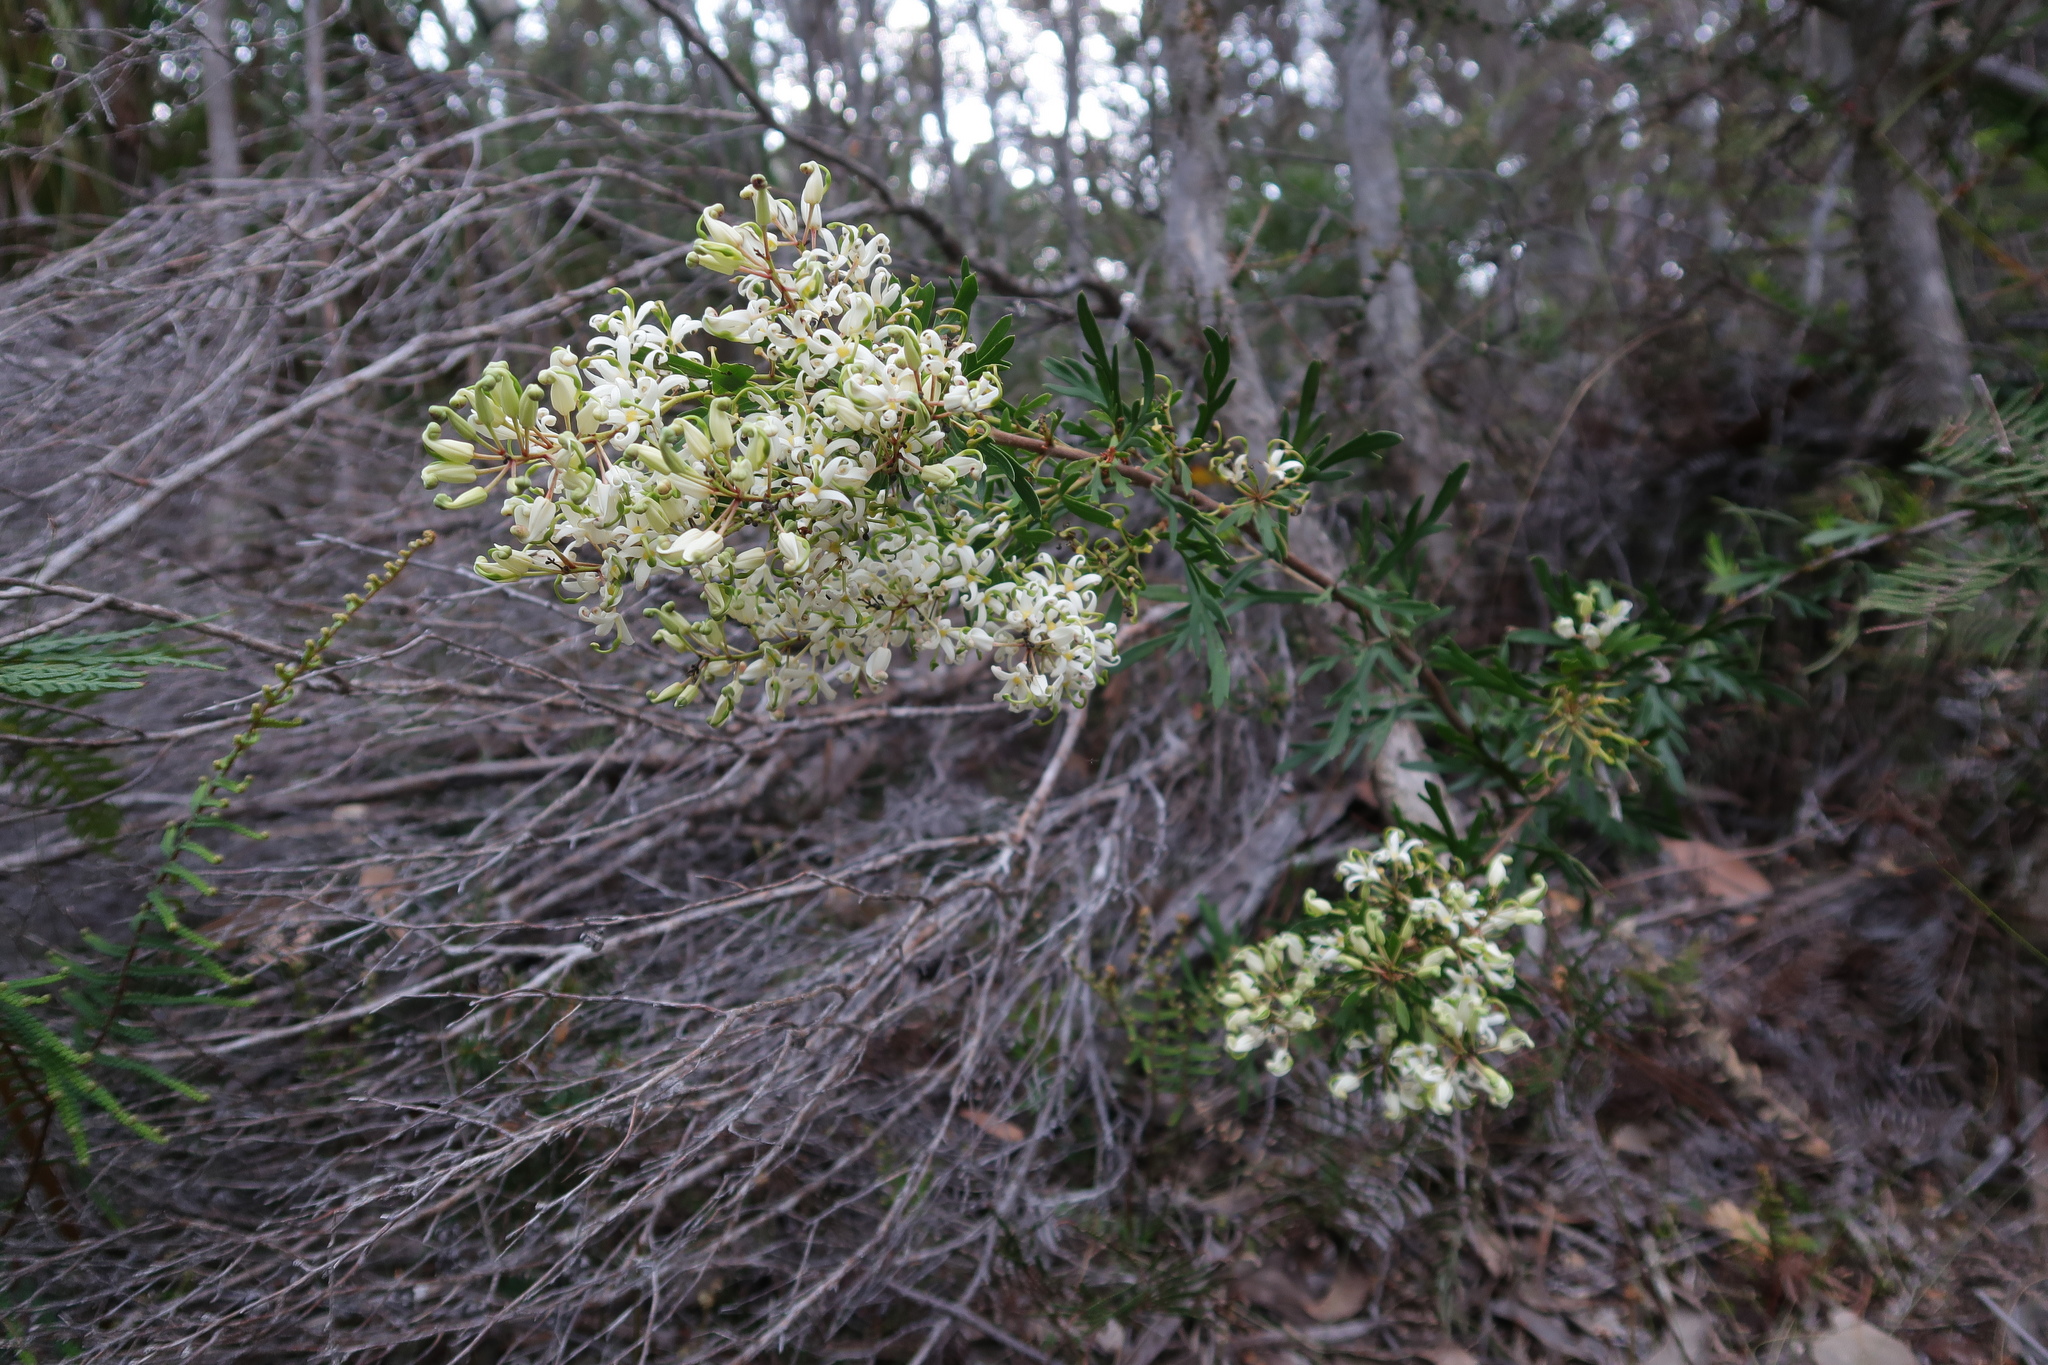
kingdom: Plantae
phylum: Tracheophyta
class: Magnoliopsida
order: Proteales
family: Proteaceae
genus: Lomatia
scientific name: Lomatia tinctoria
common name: Guitar plant
